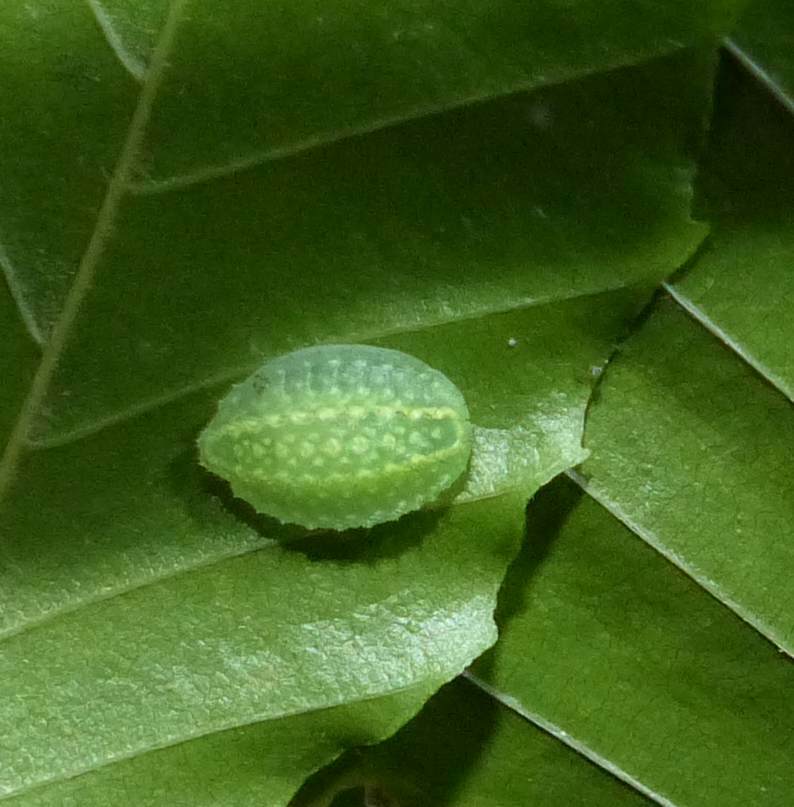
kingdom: Animalia
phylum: Arthropoda
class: Insecta
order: Lepidoptera
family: Limacodidae
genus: Lithacodes
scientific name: Lithacodes fasciola
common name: Yellow-shouldered slug moth
